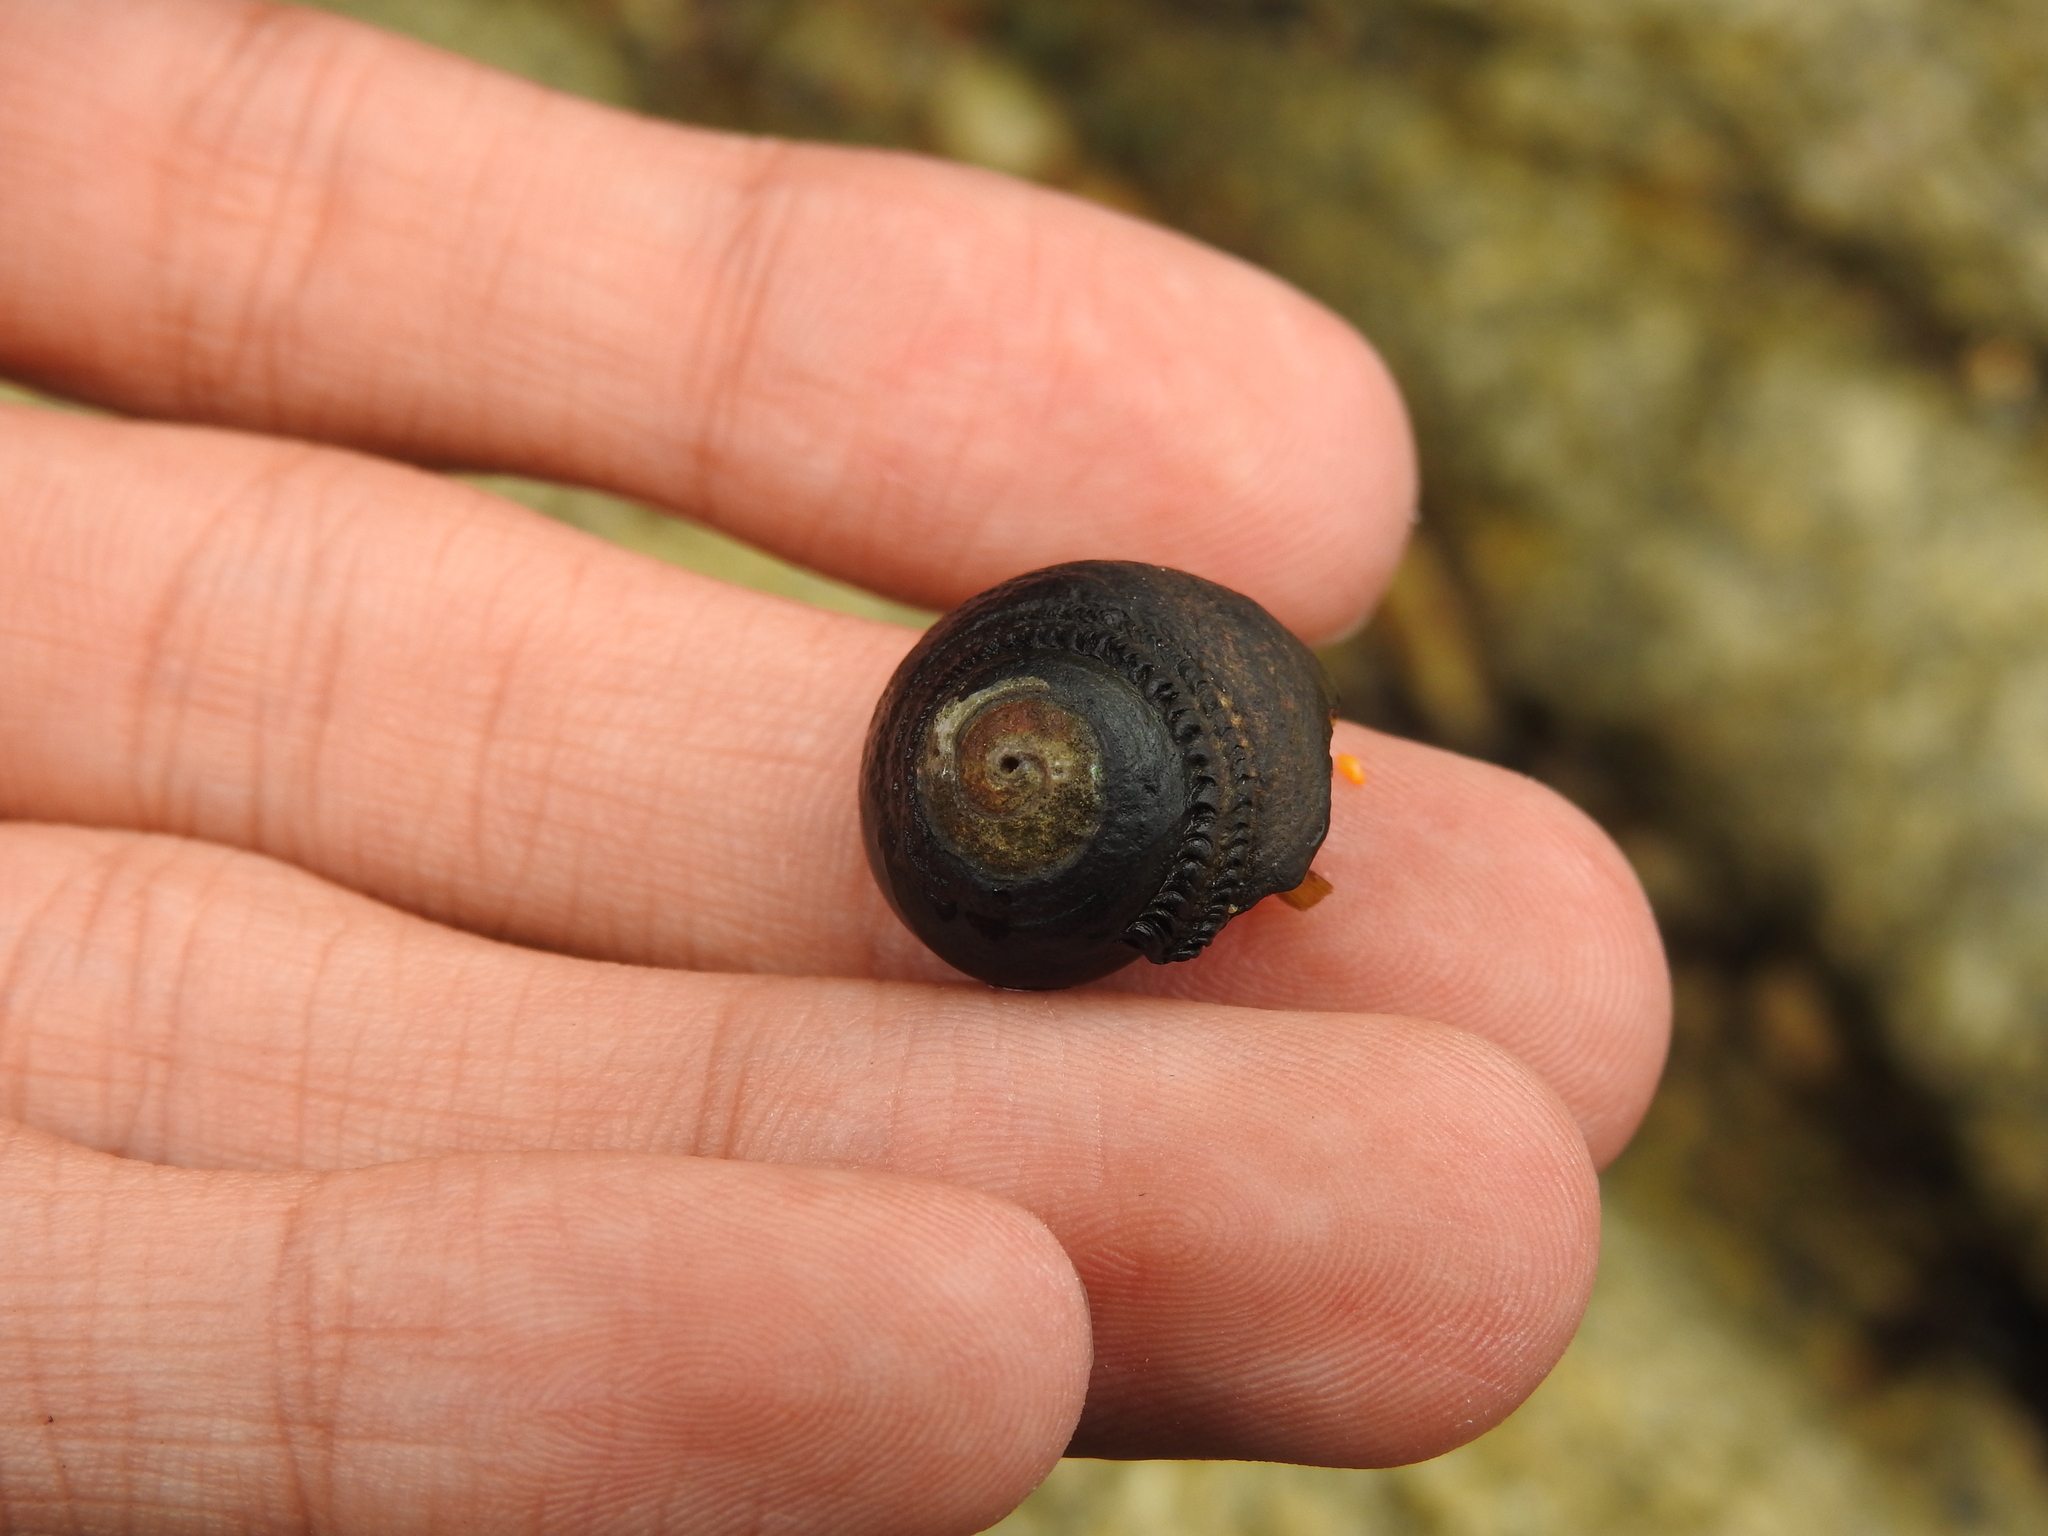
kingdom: Animalia
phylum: Mollusca
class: Gastropoda
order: Trochida
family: Tegulidae
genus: Tegula
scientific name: Tegula funebralis
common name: Black tegula
